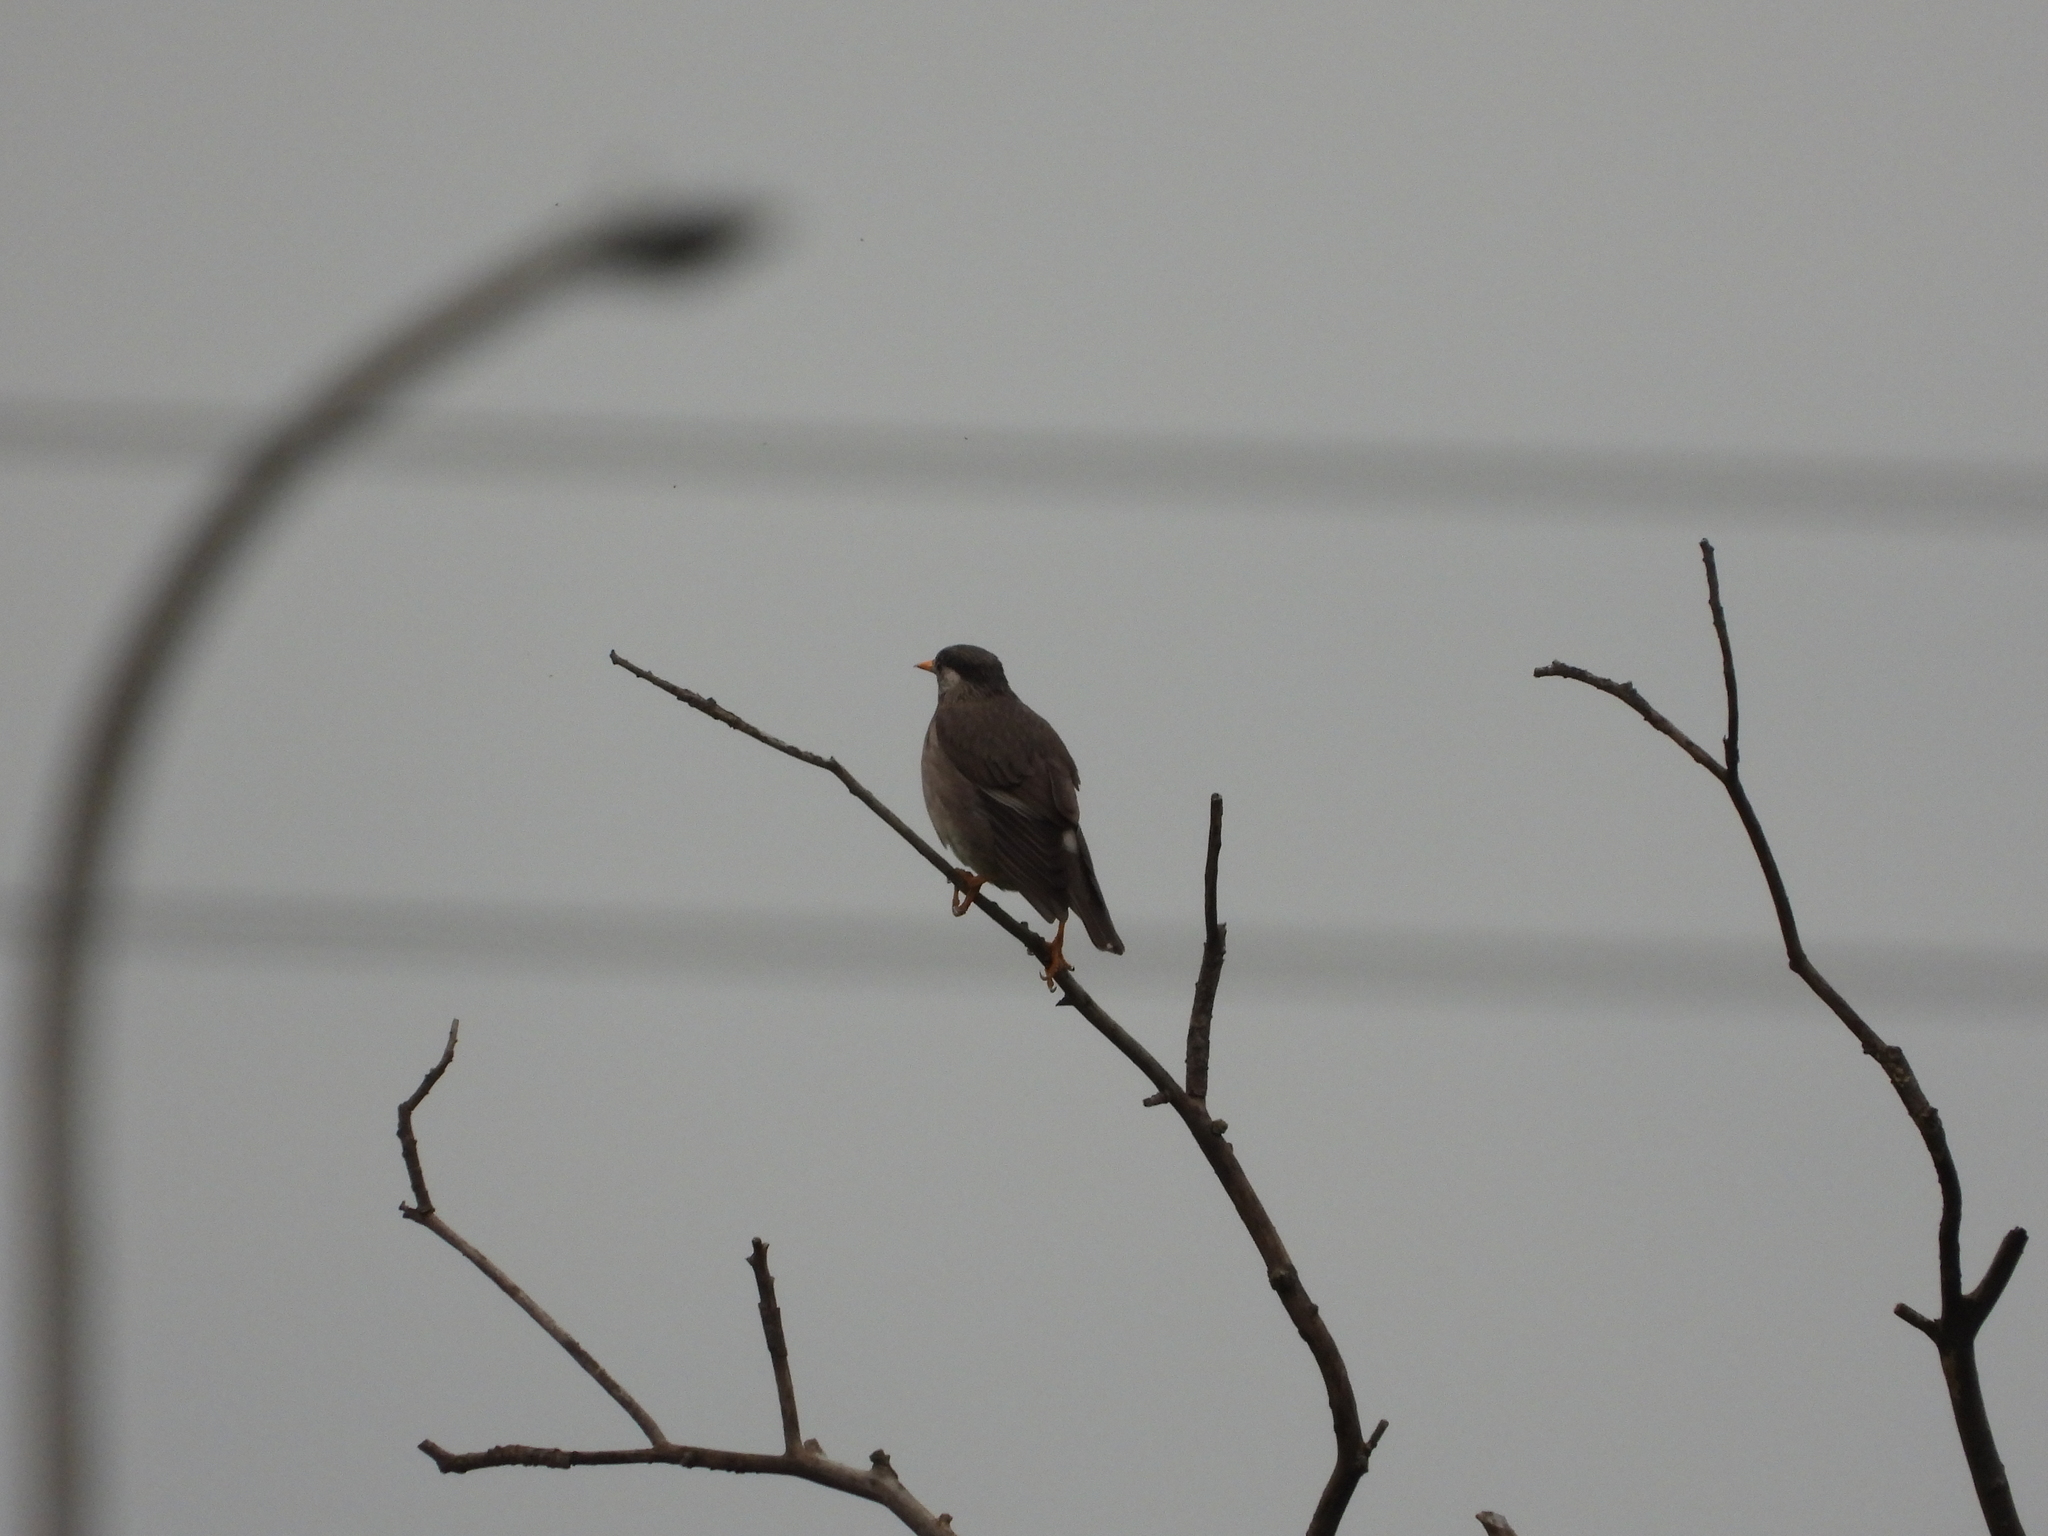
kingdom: Animalia
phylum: Chordata
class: Aves
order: Passeriformes
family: Sturnidae
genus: Spodiopsar
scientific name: Spodiopsar cineraceus
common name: White-cheeked starling
